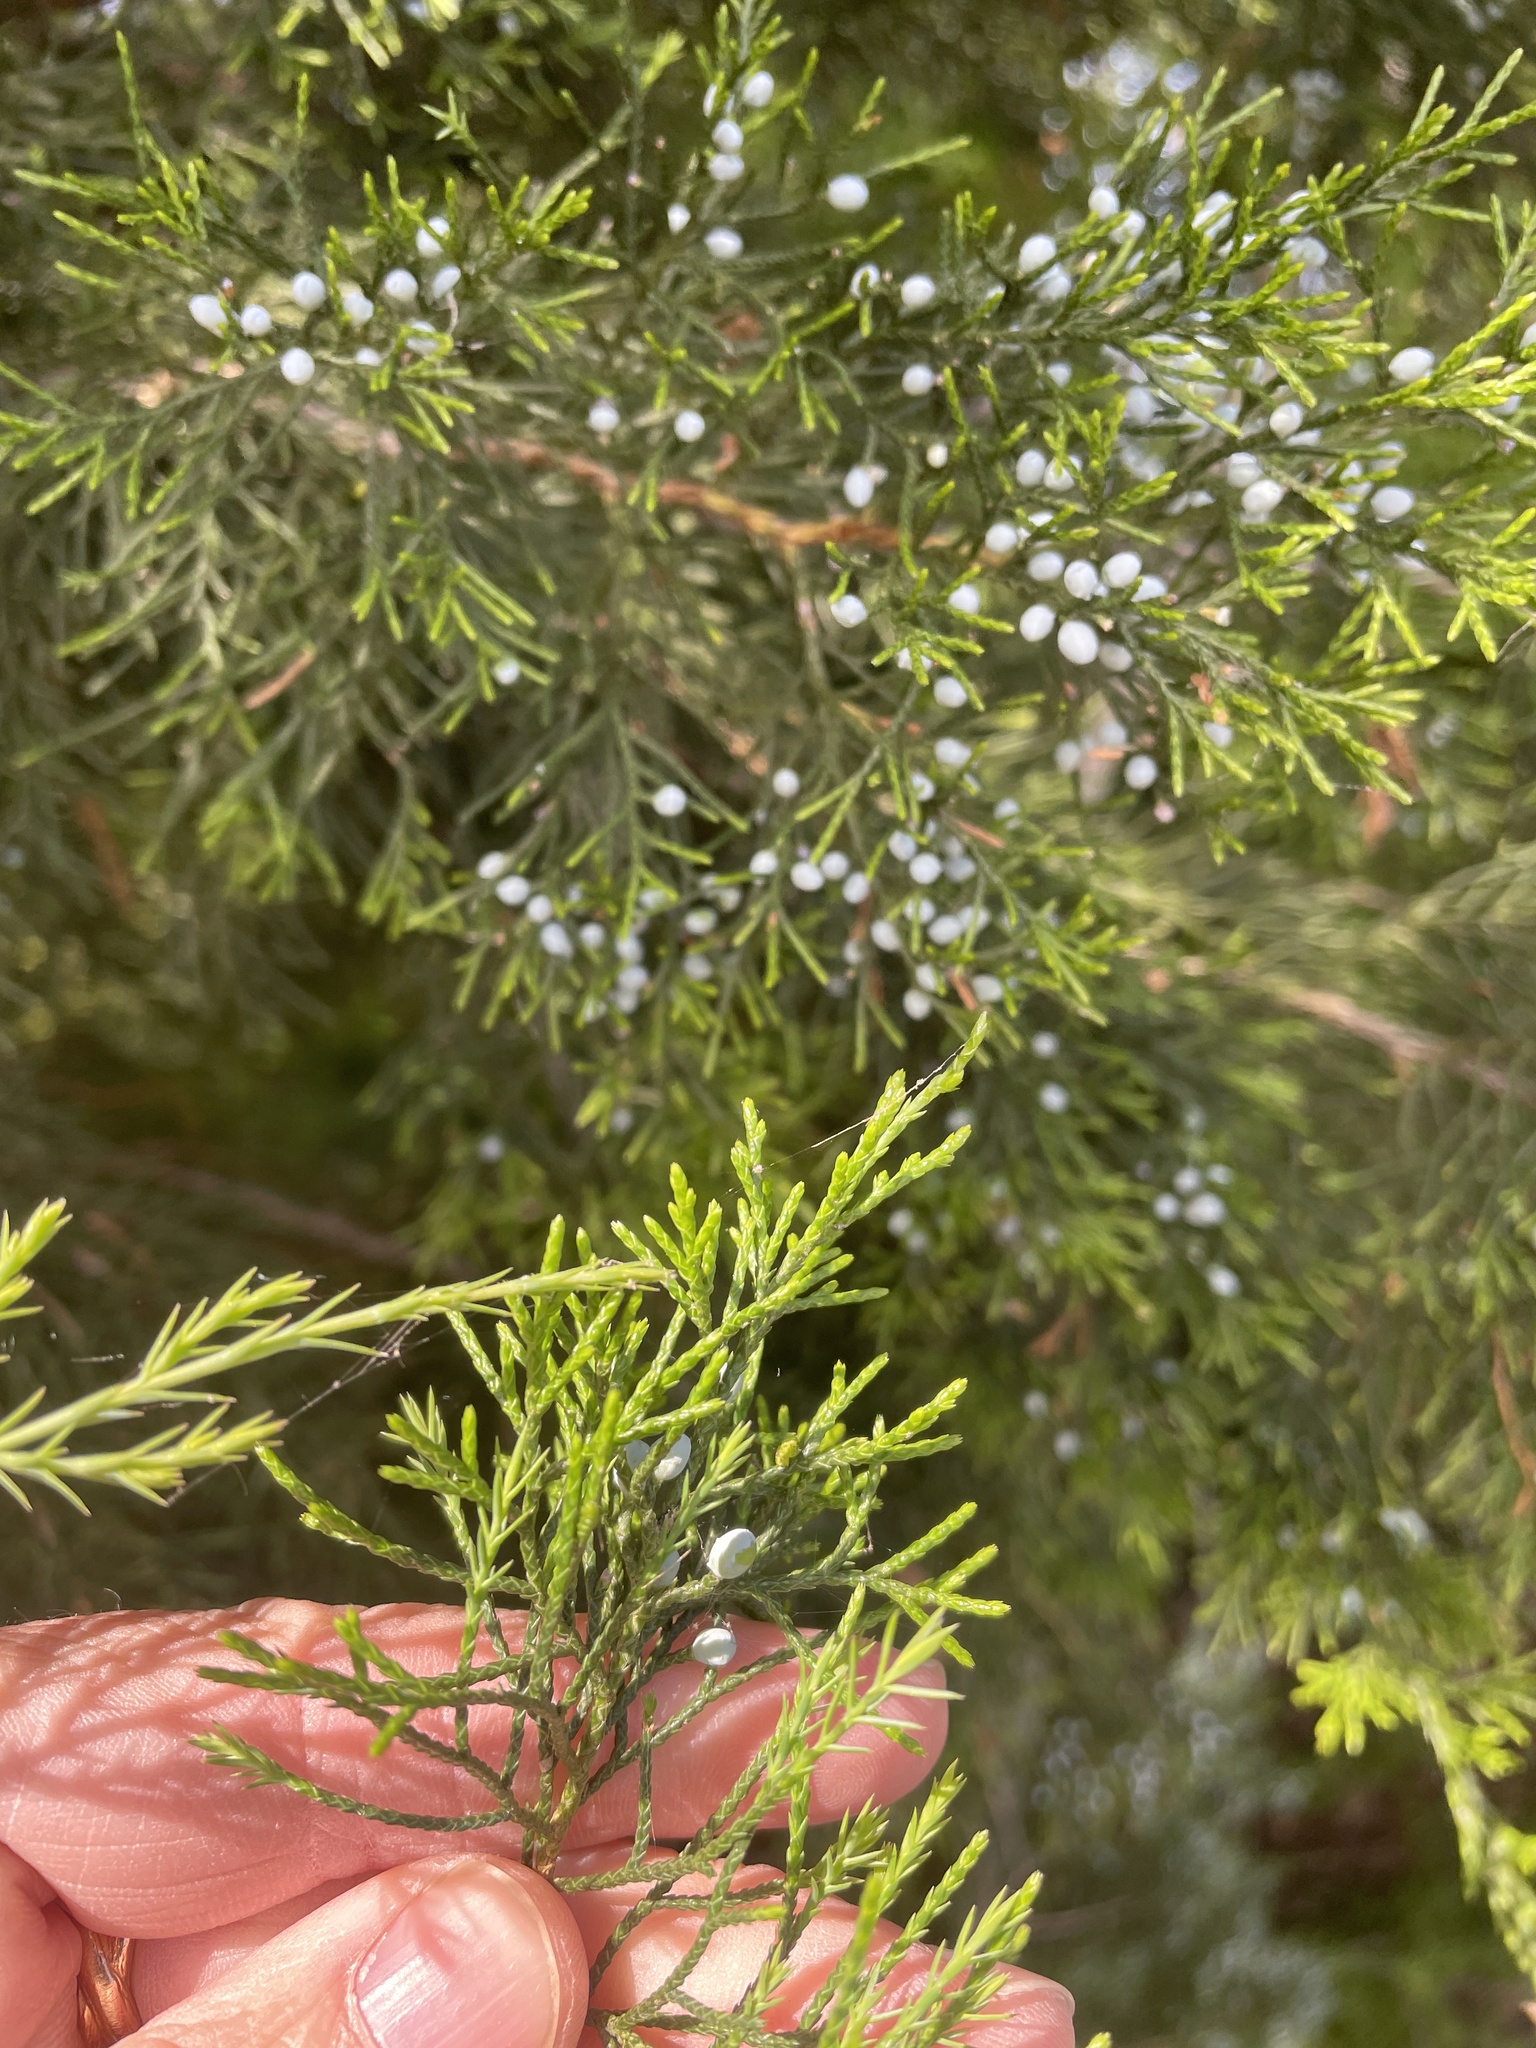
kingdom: Plantae
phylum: Tracheophyta
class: Pinopsida
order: Pinales
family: Cupressaceae
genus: Juniperus
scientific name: Juniperus virginiana
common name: Red juniper
